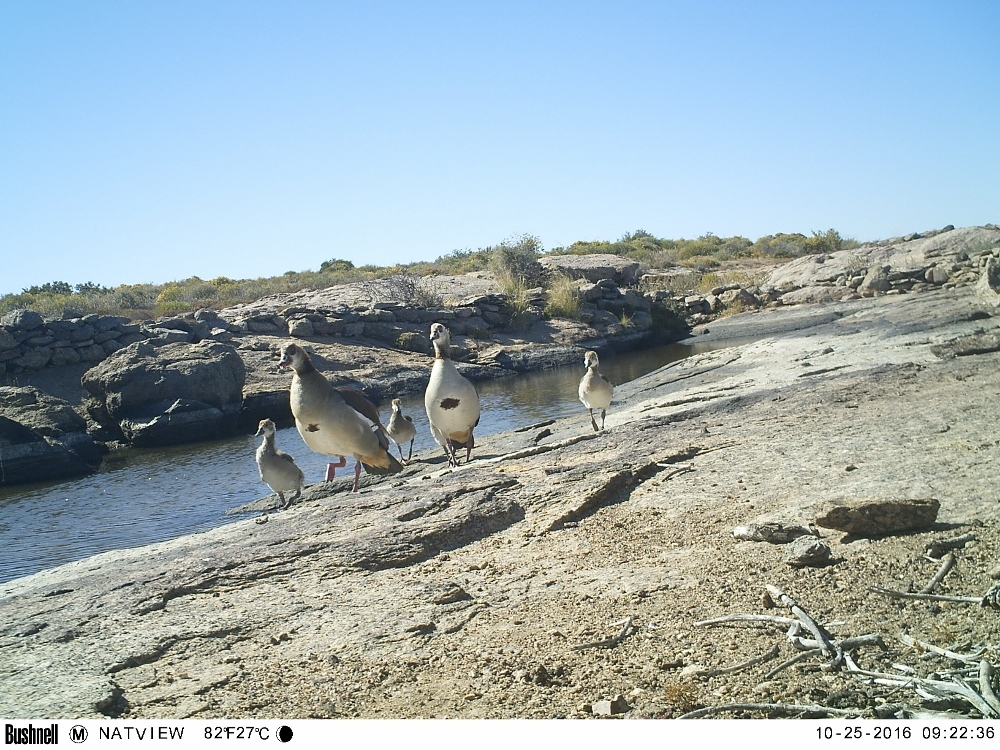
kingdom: Animalia
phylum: Chordata
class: Aves
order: Anseriformes
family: Anatidae
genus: Alopochen
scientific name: Alopochen aegyptiaca
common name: Egyptian goose
